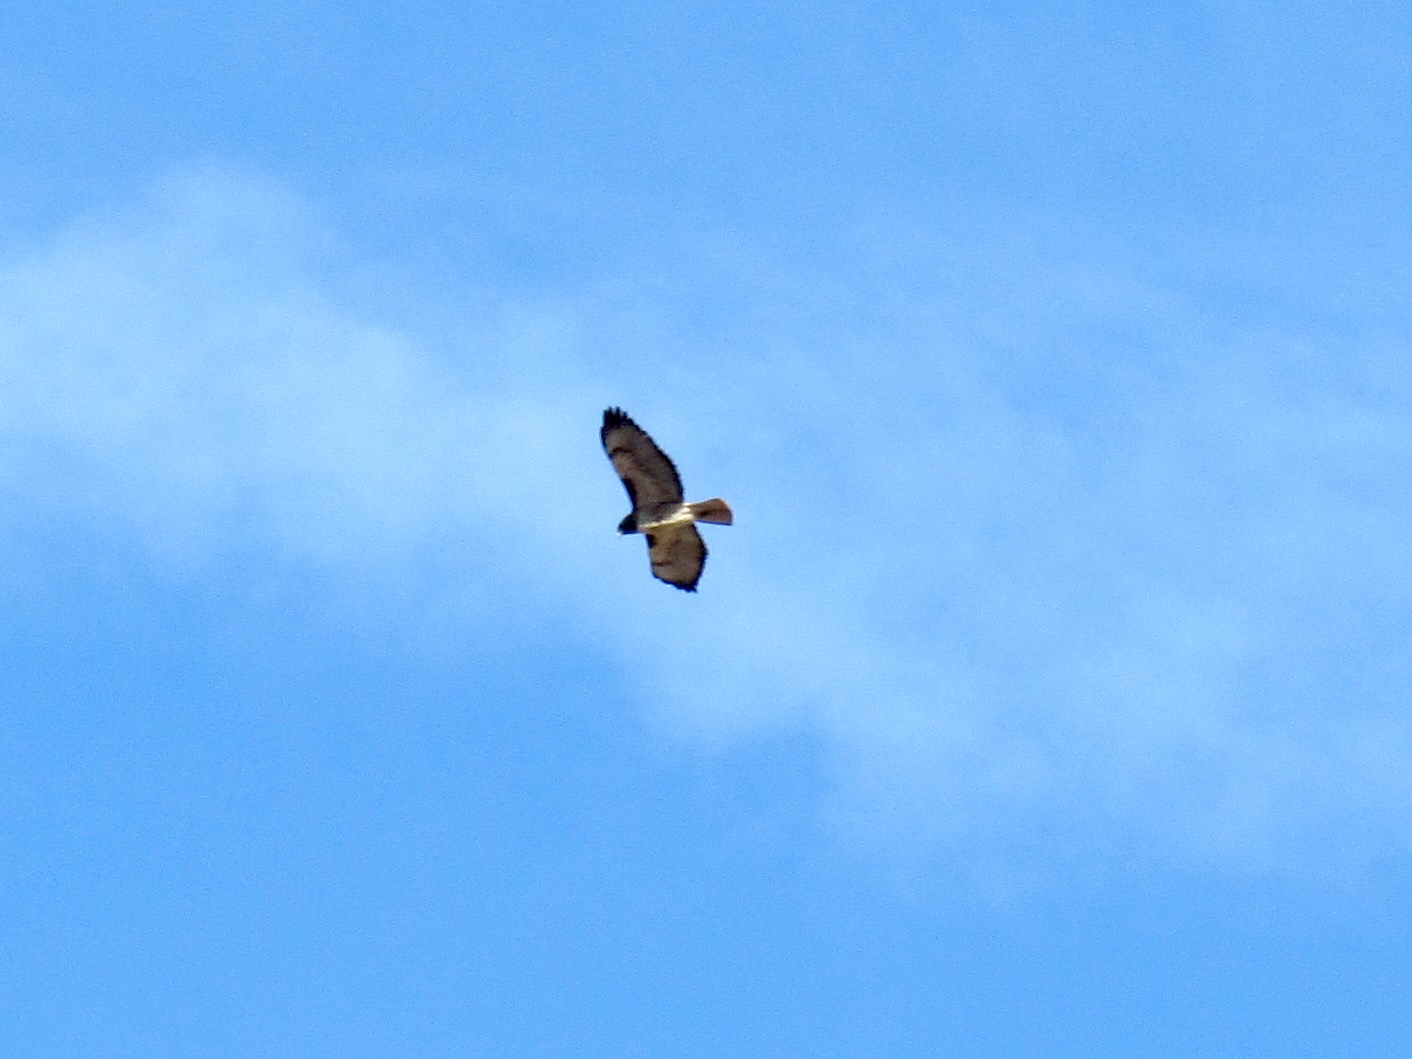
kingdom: Animalia
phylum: Chordata
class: Aves
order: Accipitriformes
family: Accipitridae
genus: Buteo
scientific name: Buteo jamaicensis
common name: Red-tailed hawk
